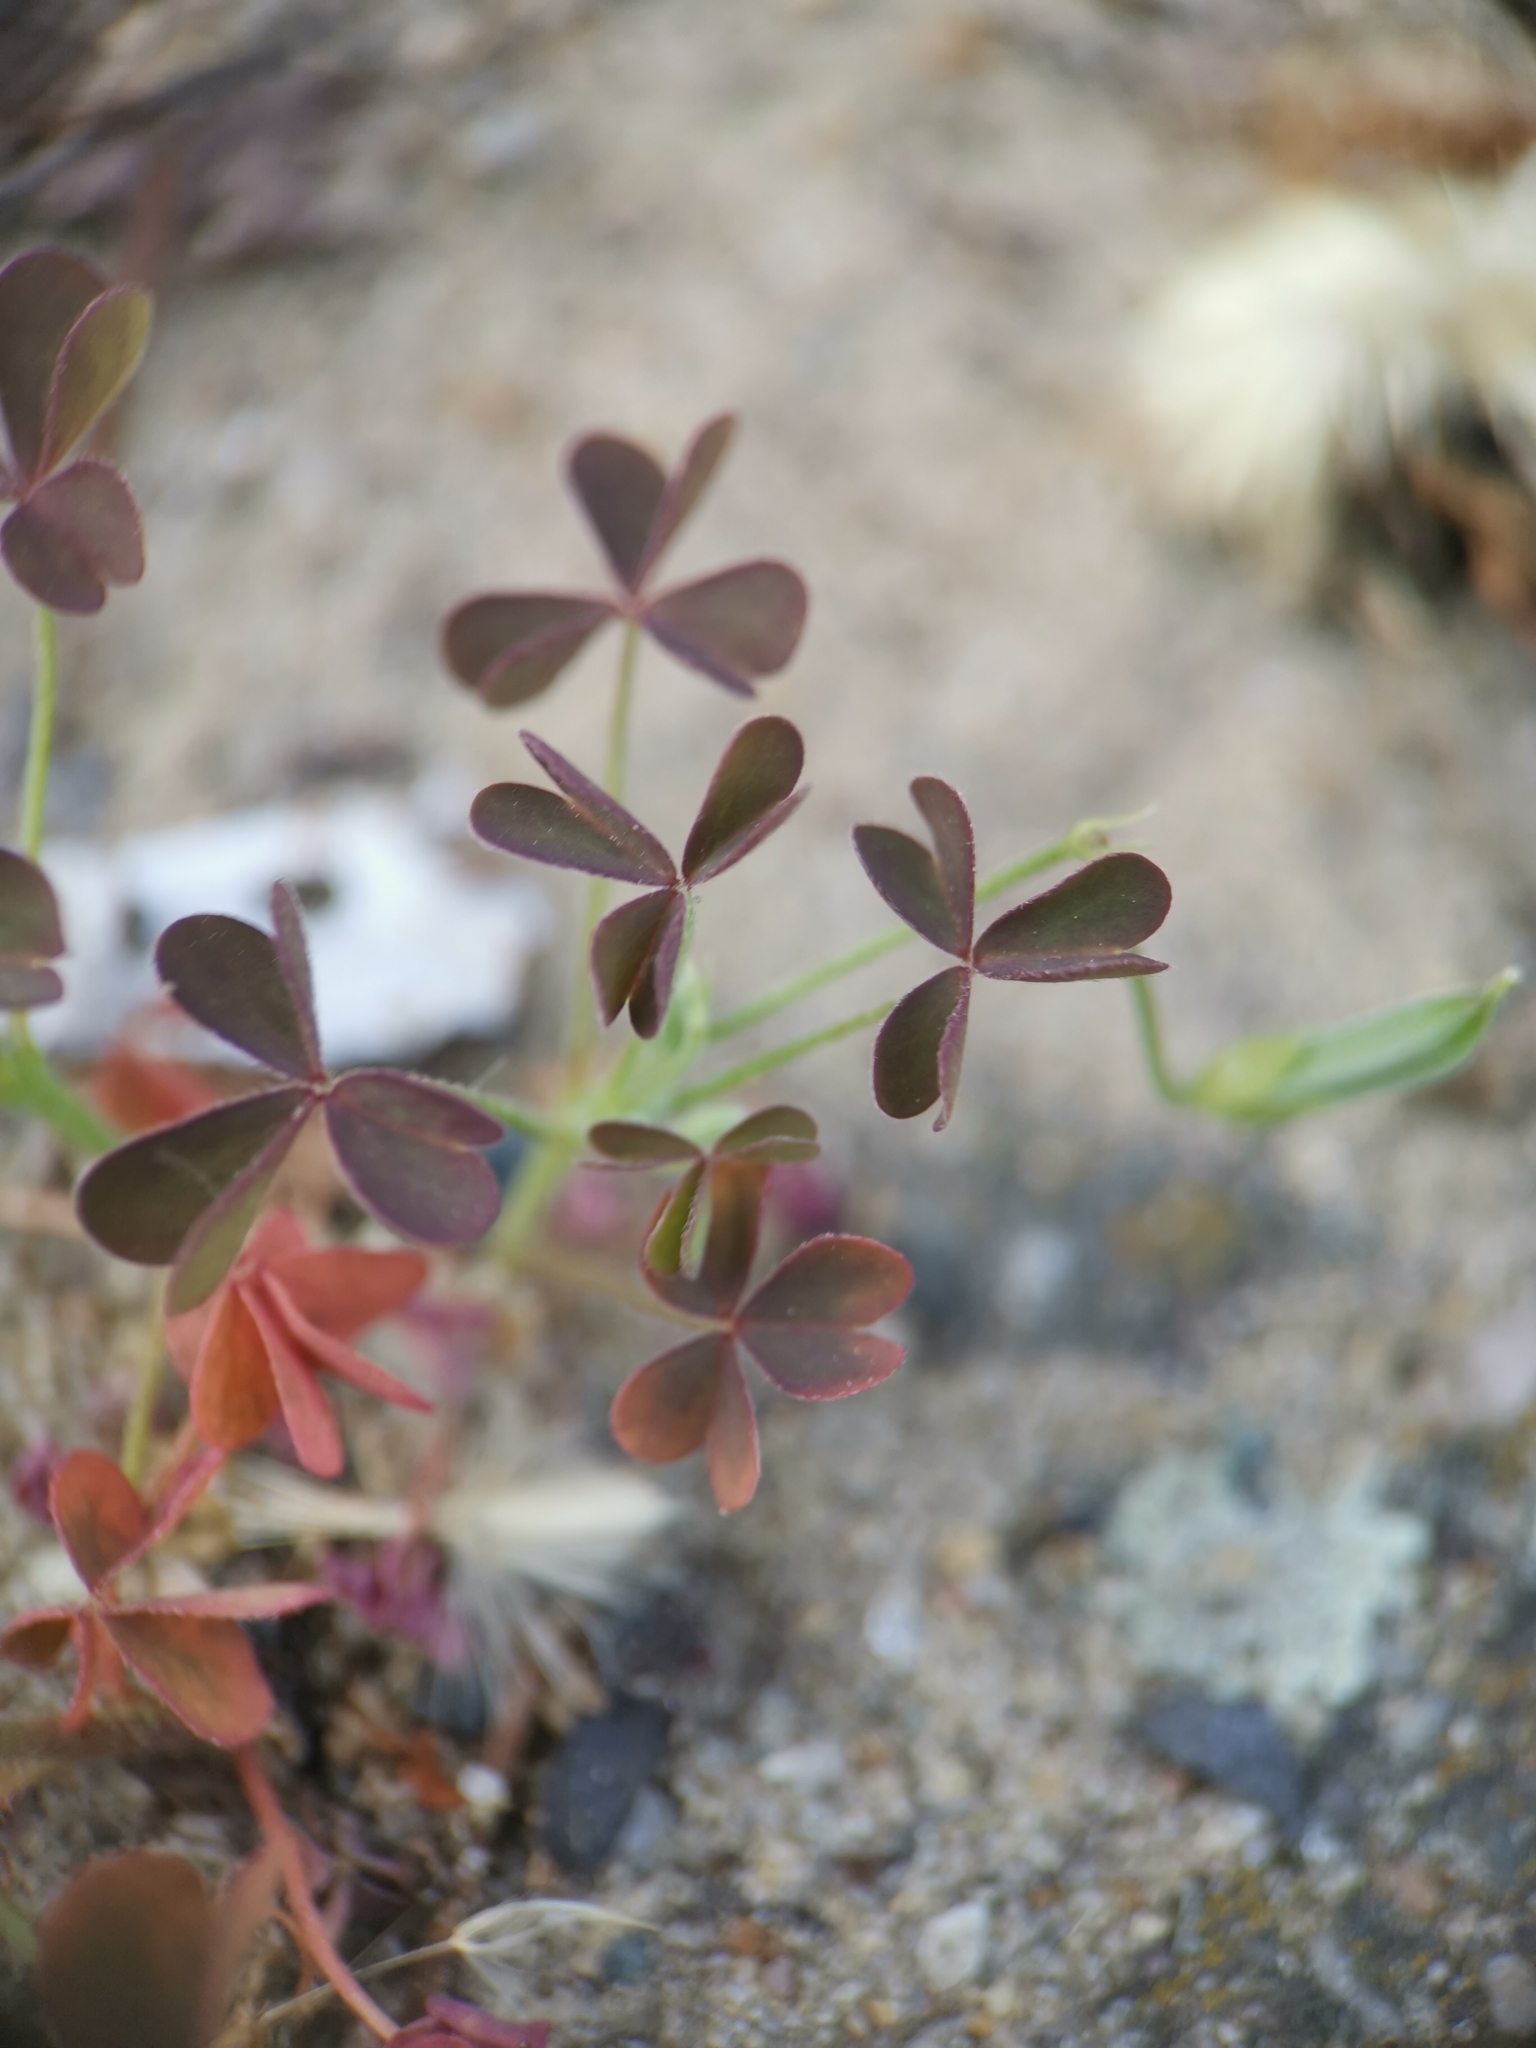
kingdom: Plantae
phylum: Tracheophyta
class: Magnoliopsida
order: Oxalidales
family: Oxalidaceae
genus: Oxalis
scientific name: Oxalis corniculata
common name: Procumbent yellow-sorrel
